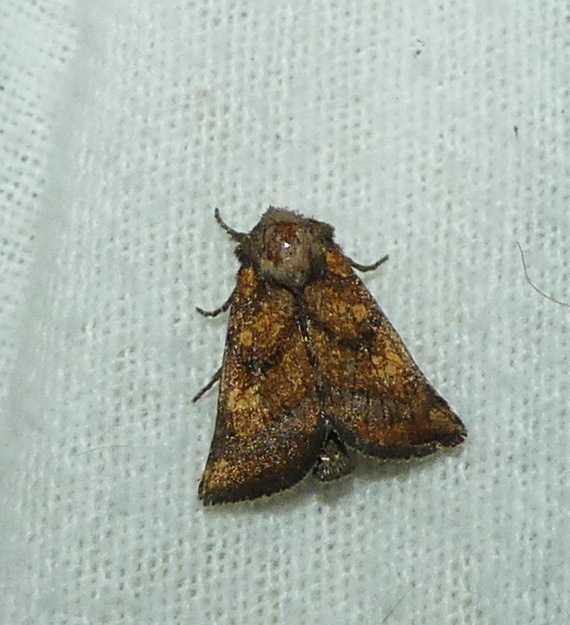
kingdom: Animalia
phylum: Arthropoda
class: Insecta
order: Lepidoptera
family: Noctuidae
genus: Papaipema
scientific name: Papaipema impecuniosa
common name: Aster borer moth
